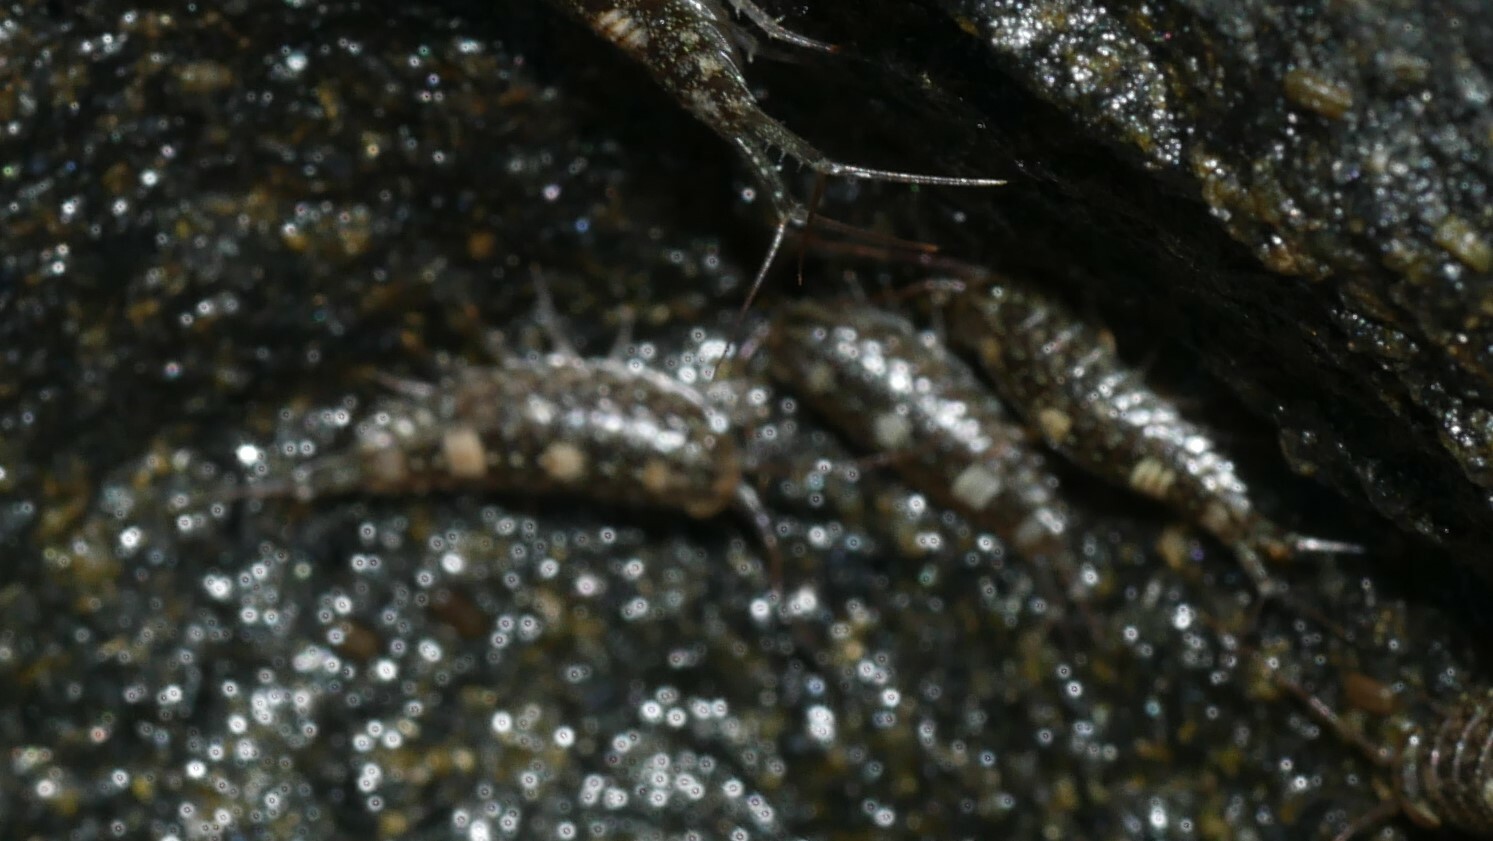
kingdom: Animalia
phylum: Arthropoda
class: Malacostraca
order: Isopoda
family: Ligiidae
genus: Ligia
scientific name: Ligia exotica
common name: Wharf roach
